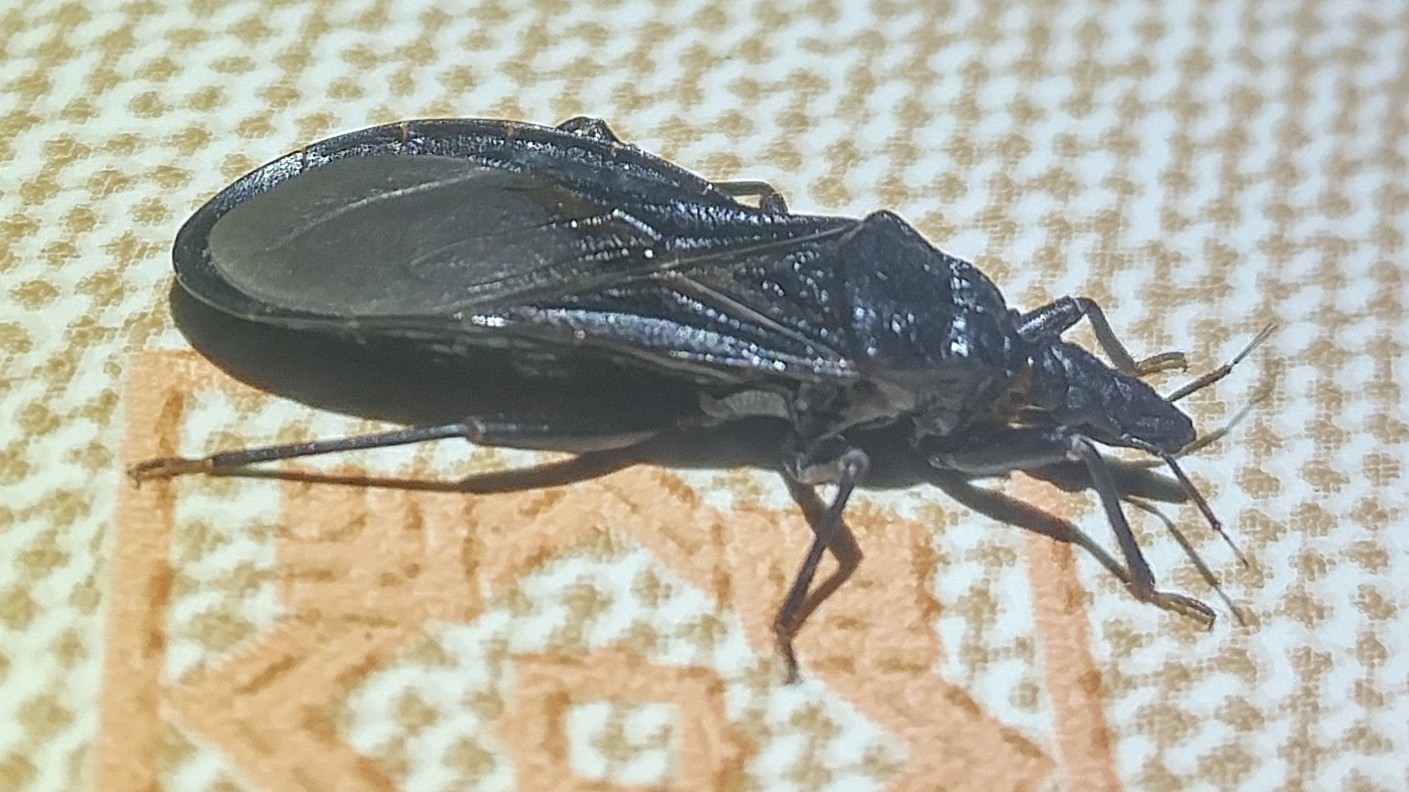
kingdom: Animalia
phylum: Arthropoda
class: Insecta
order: Hemiptera
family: Reduviidae
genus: Triatoma
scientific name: Triatoma protracta
